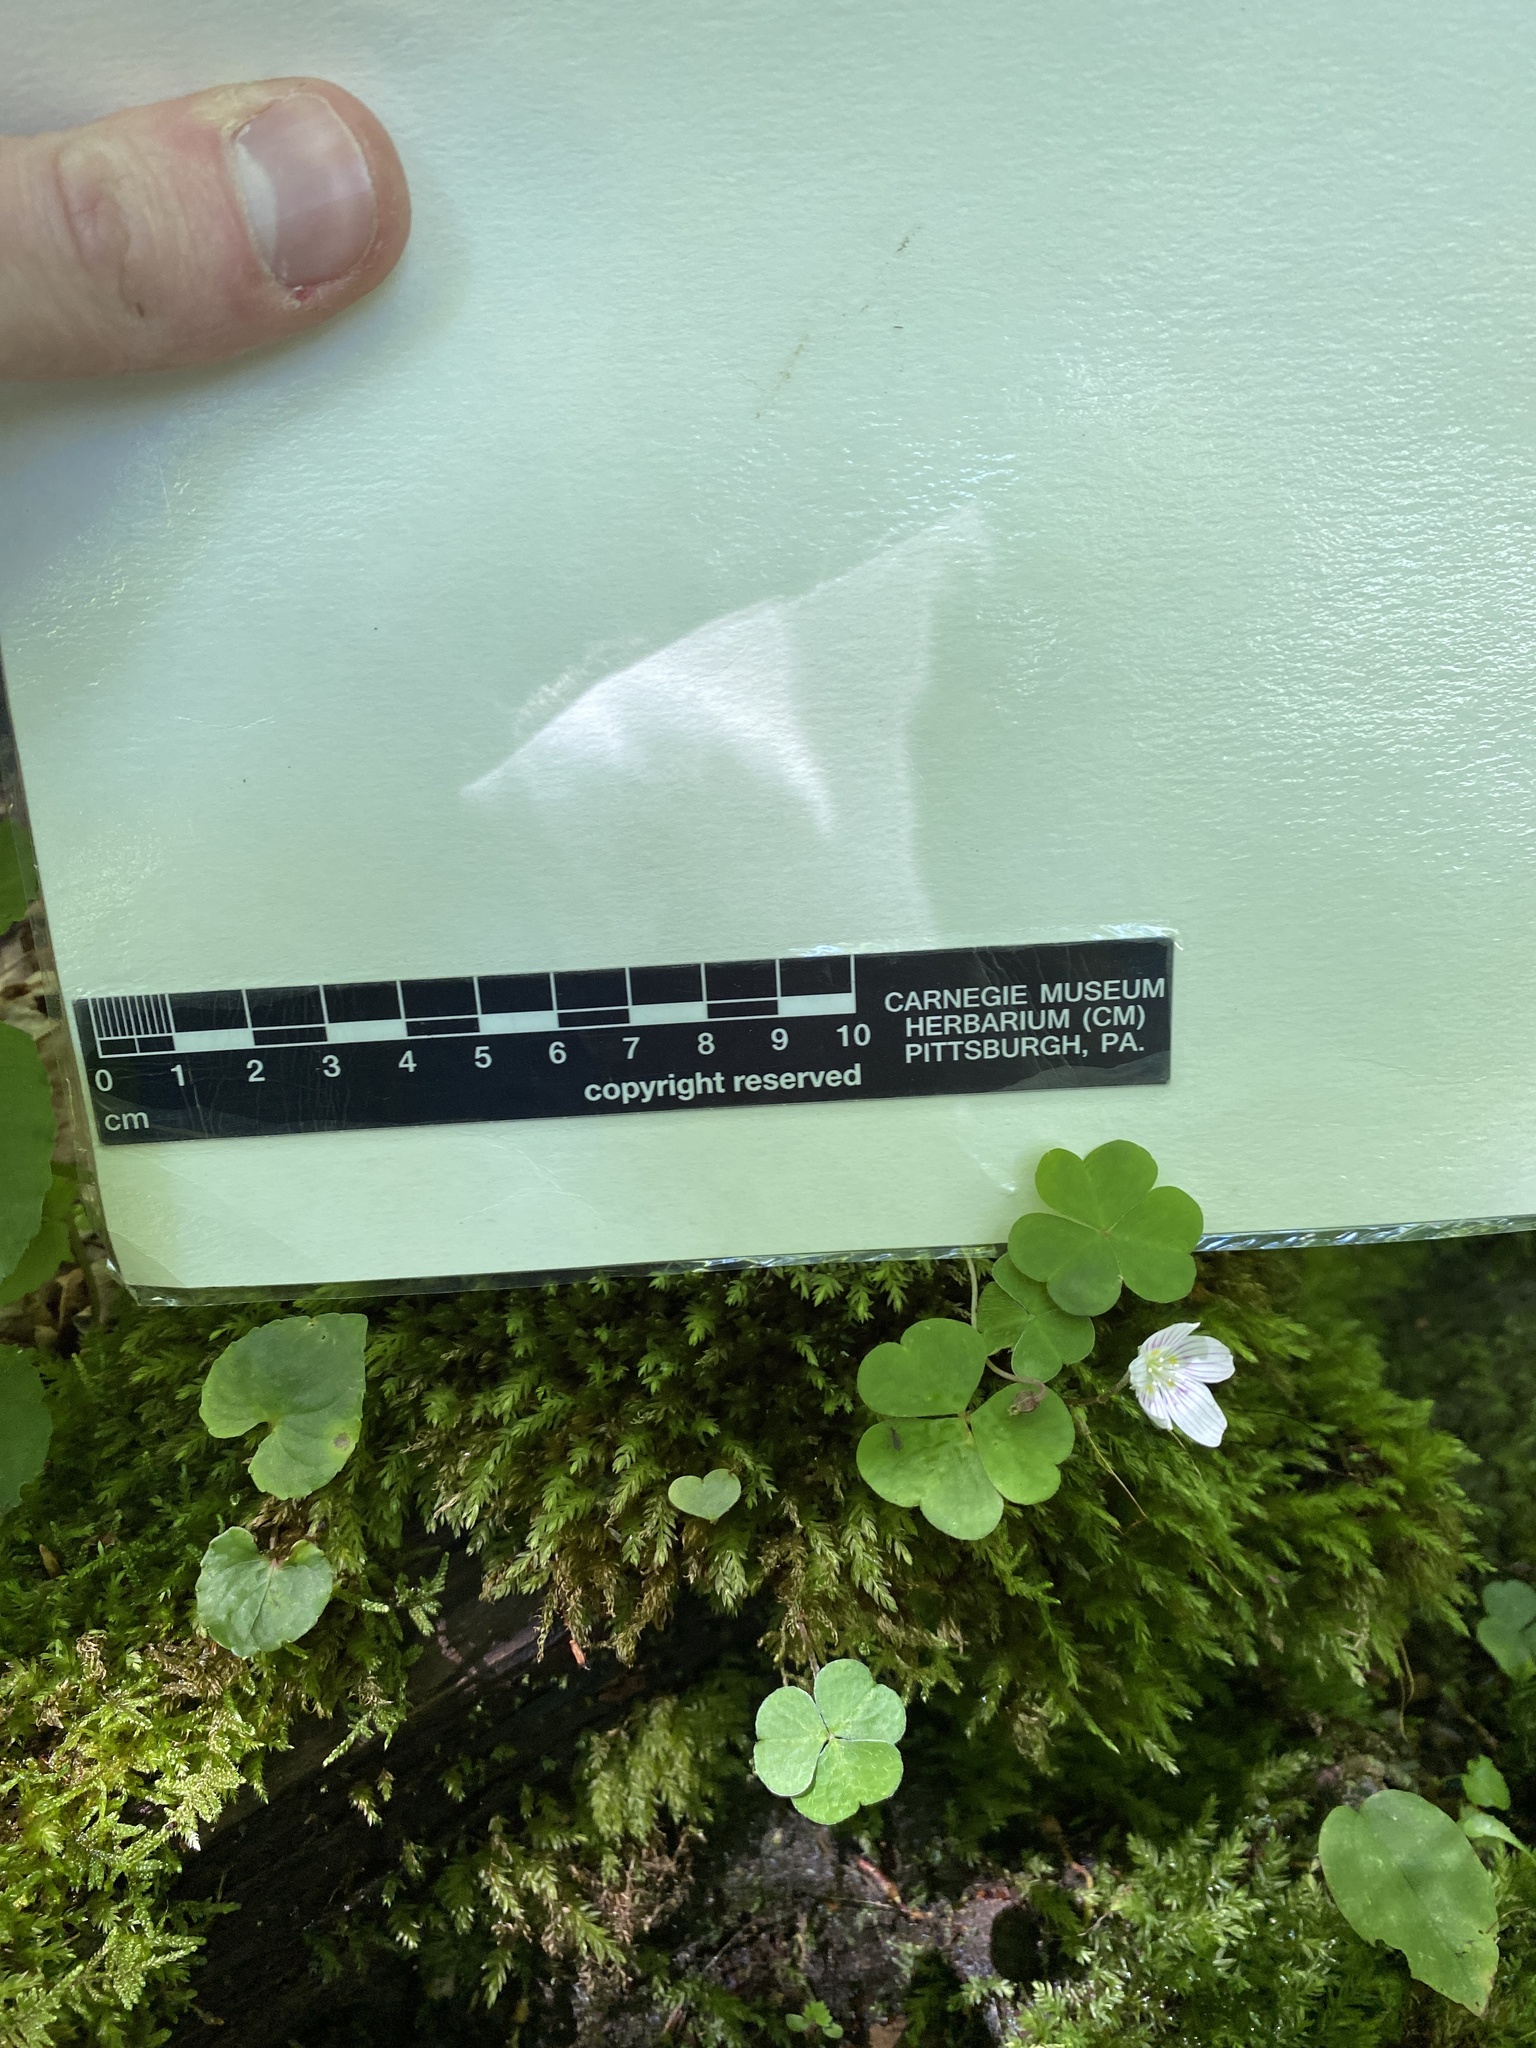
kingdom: Plantae
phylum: Tracheophyta
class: Magnoliopsida
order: Oxalidales
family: Oxalidaceae
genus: Oxalis
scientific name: Oxalis montana
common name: American wood-sorrel
